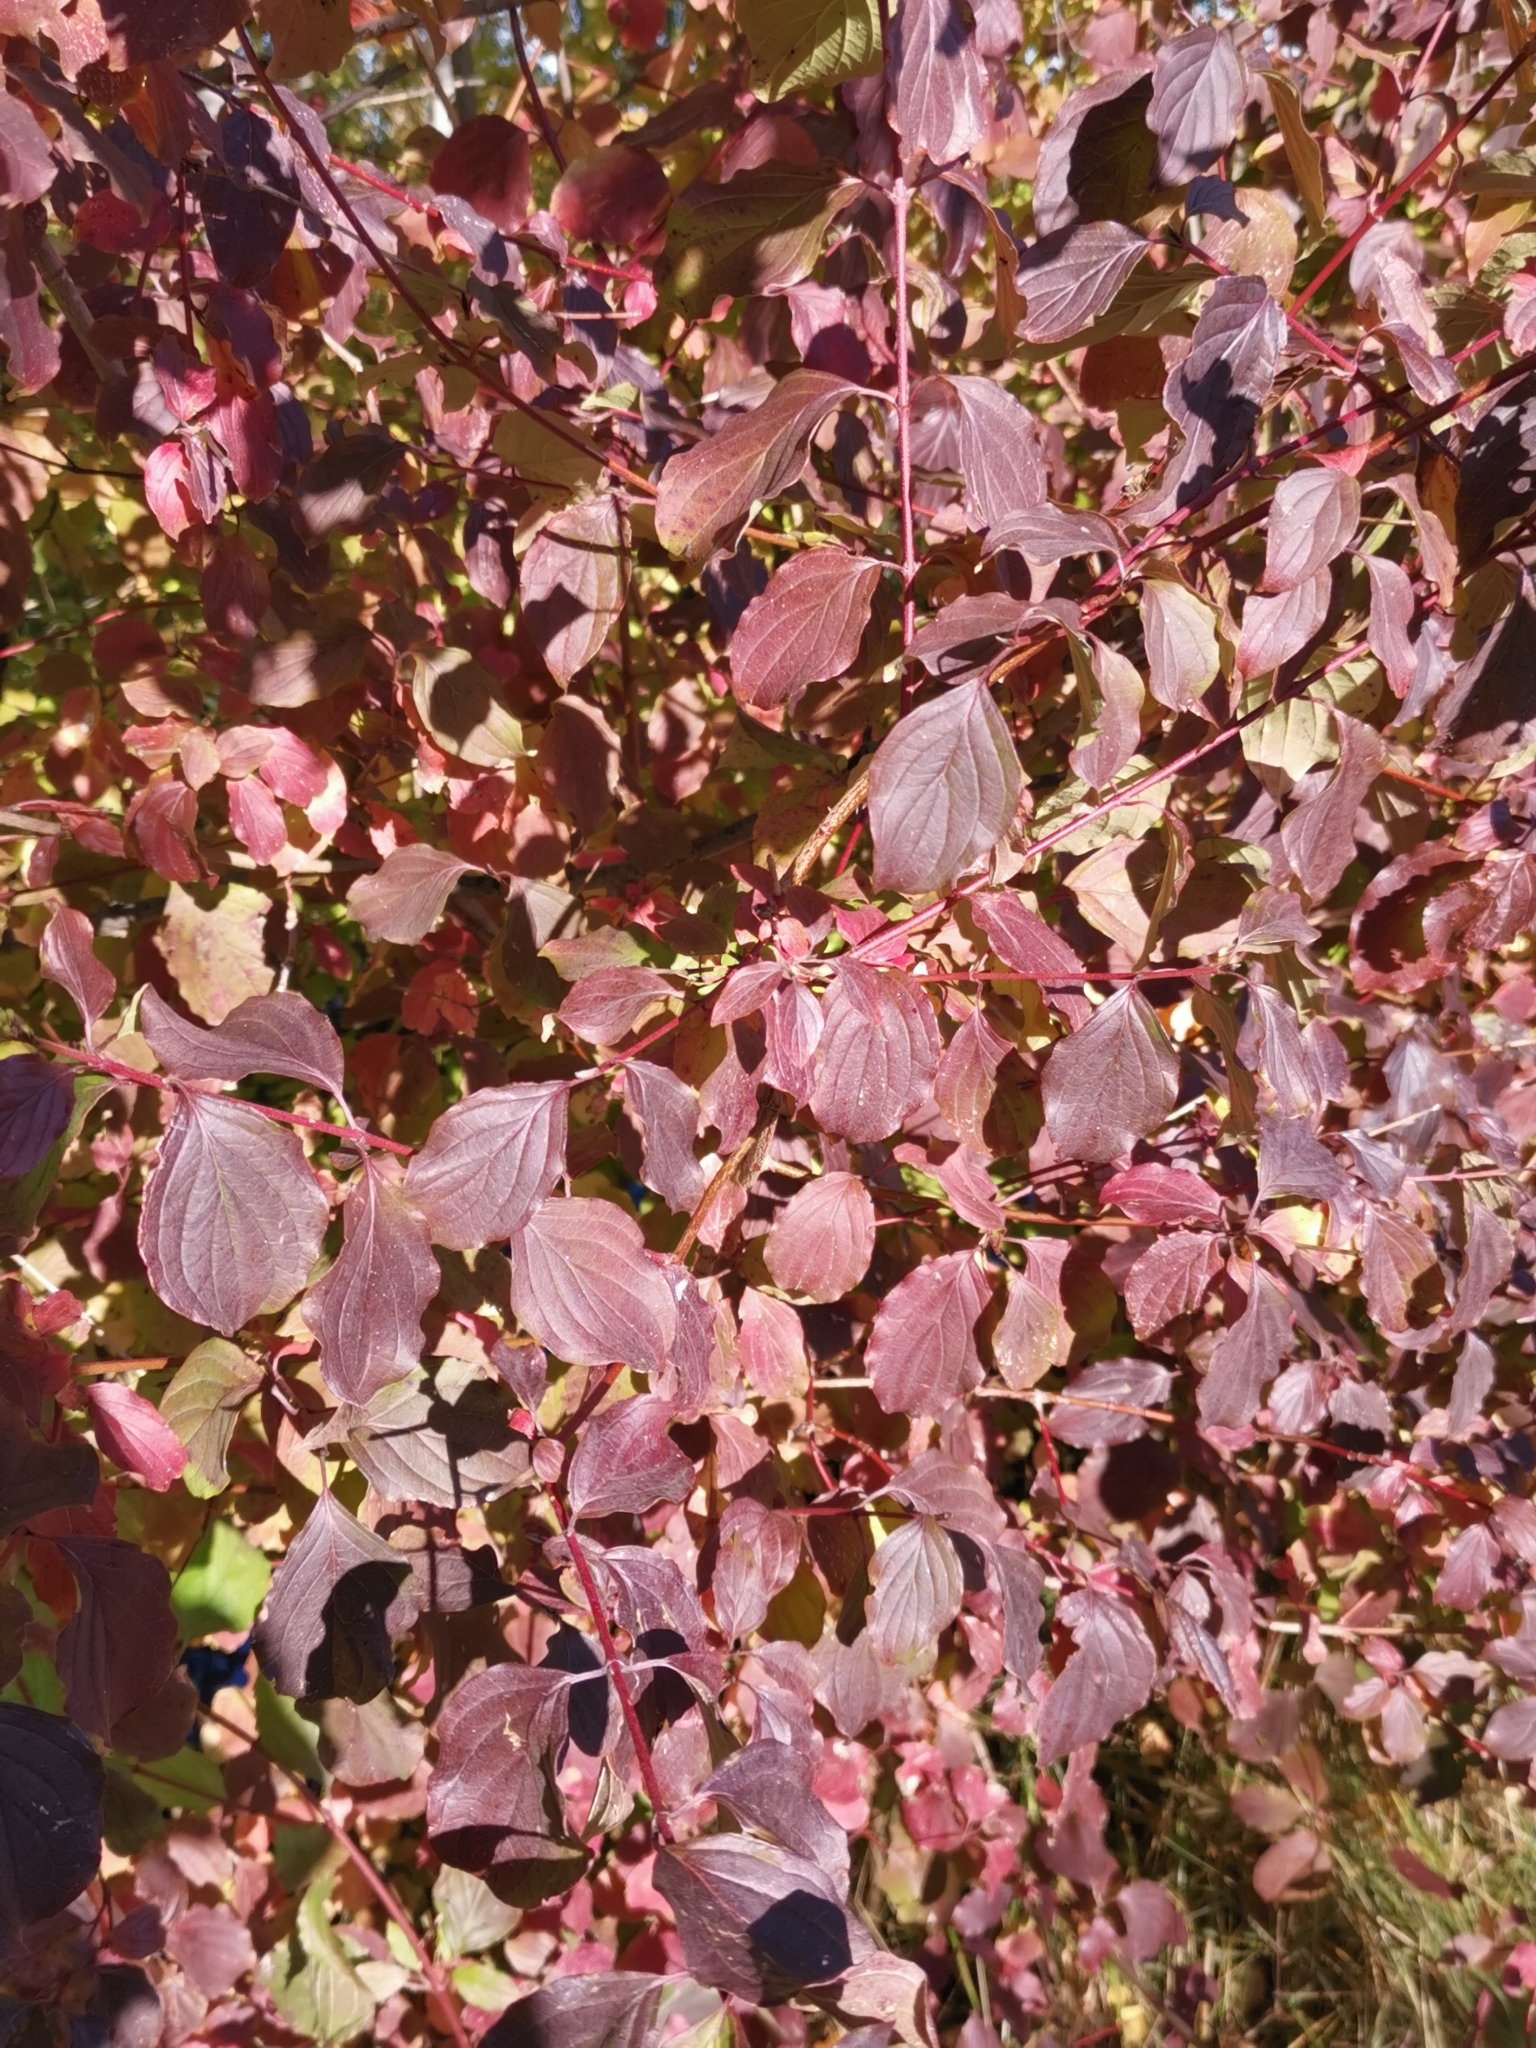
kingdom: Plantae
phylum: Tracheophyta
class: Magnoliopsida
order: Cornales
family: Cornaceae
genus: Cornus
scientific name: Cornus sanguinea
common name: Dogwood
